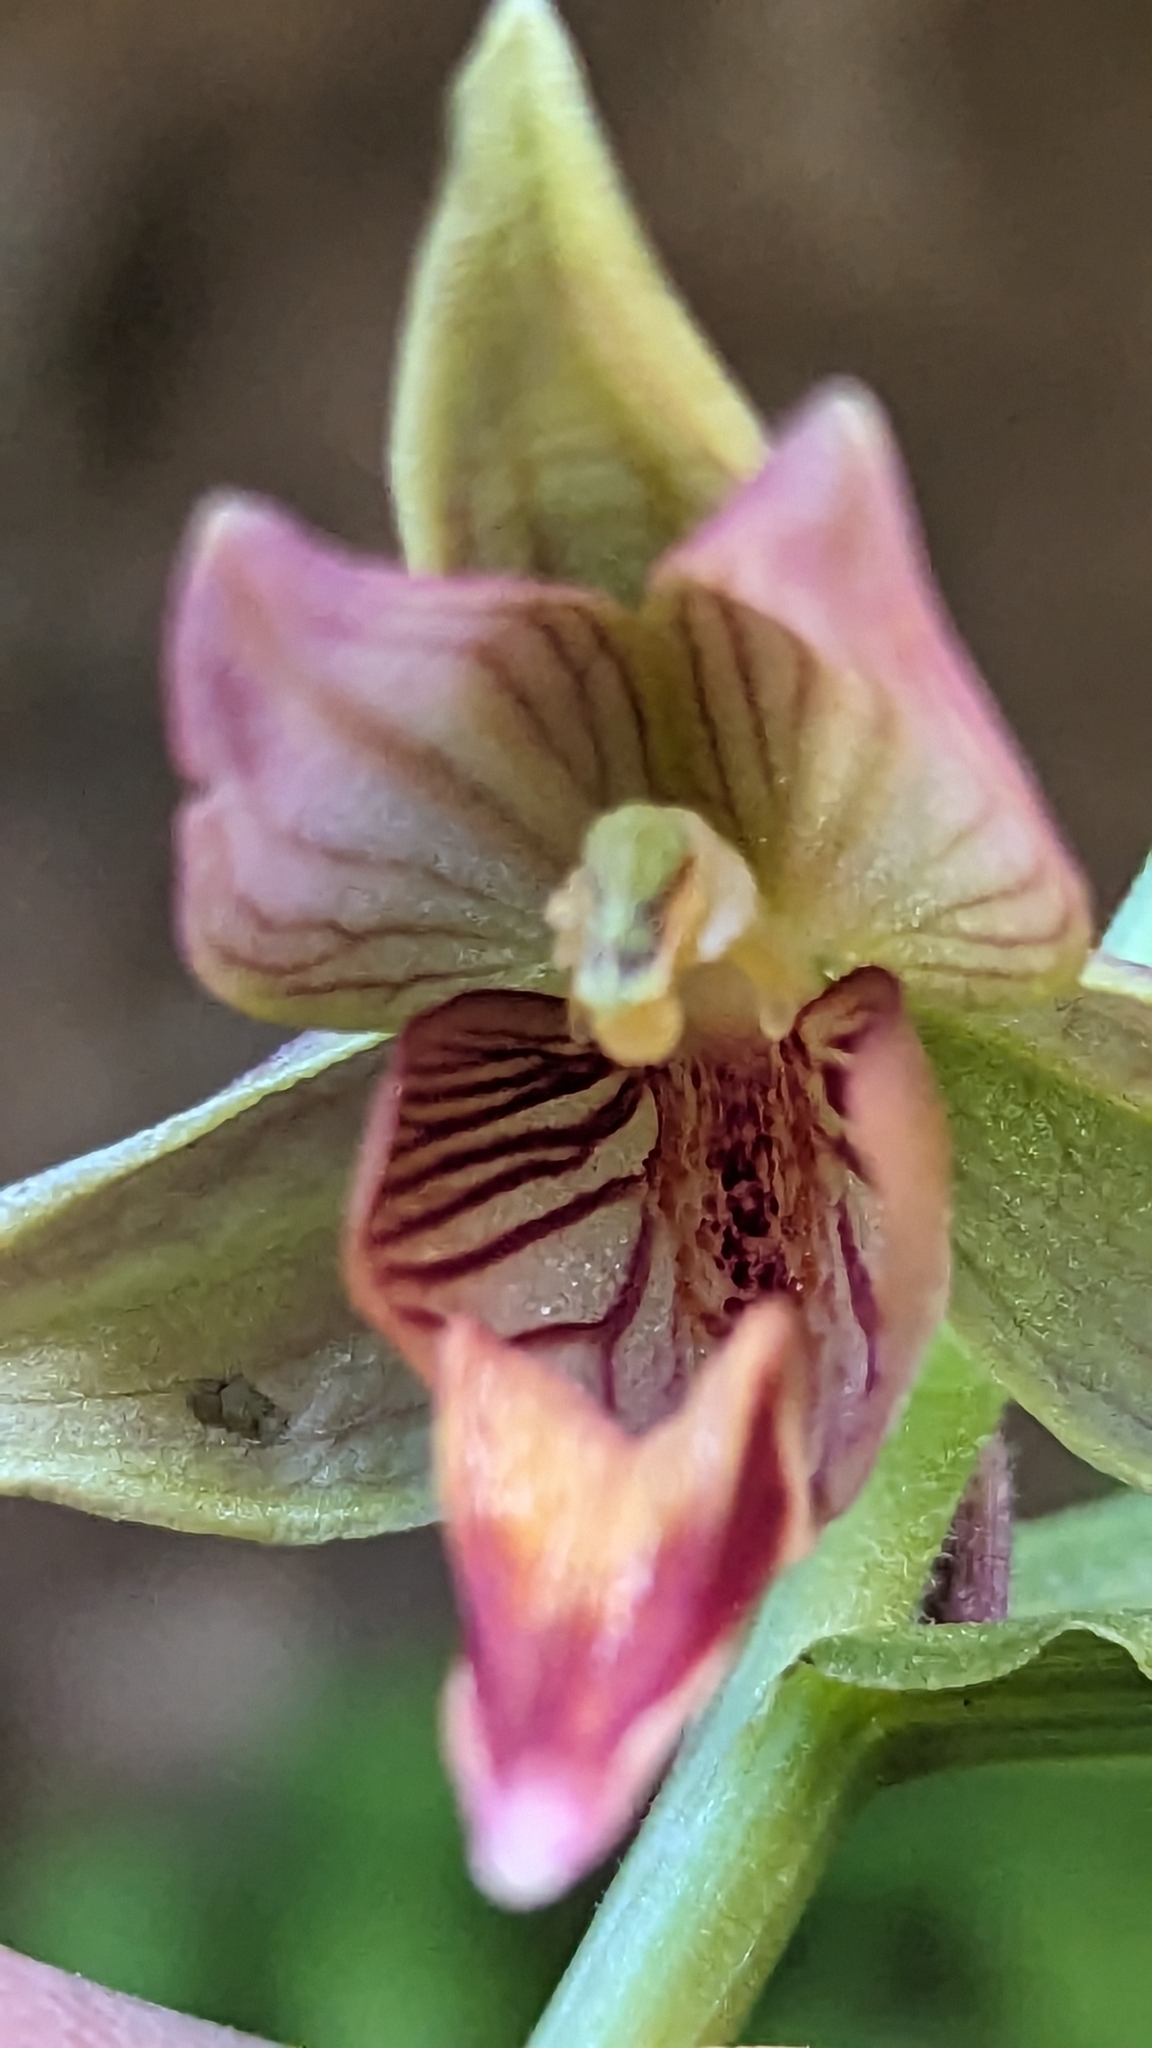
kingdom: Plantae
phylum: Tracheophyta
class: Liliopsida
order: Asparagales
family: Orchidaceae
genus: Epipactis
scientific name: Epipactis gigantea
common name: Chatterbox
